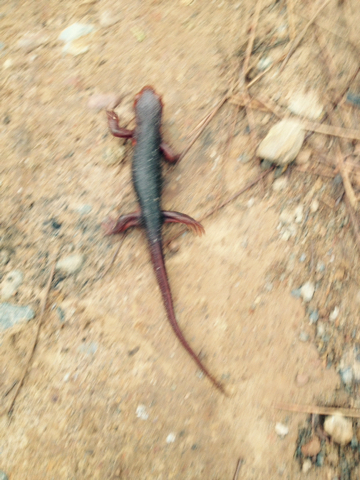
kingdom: Animalia
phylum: Chordata
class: Amphibia
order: Caudata
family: Salamandridae
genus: Taricha
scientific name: Taricha sierrae
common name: Sierra newt
